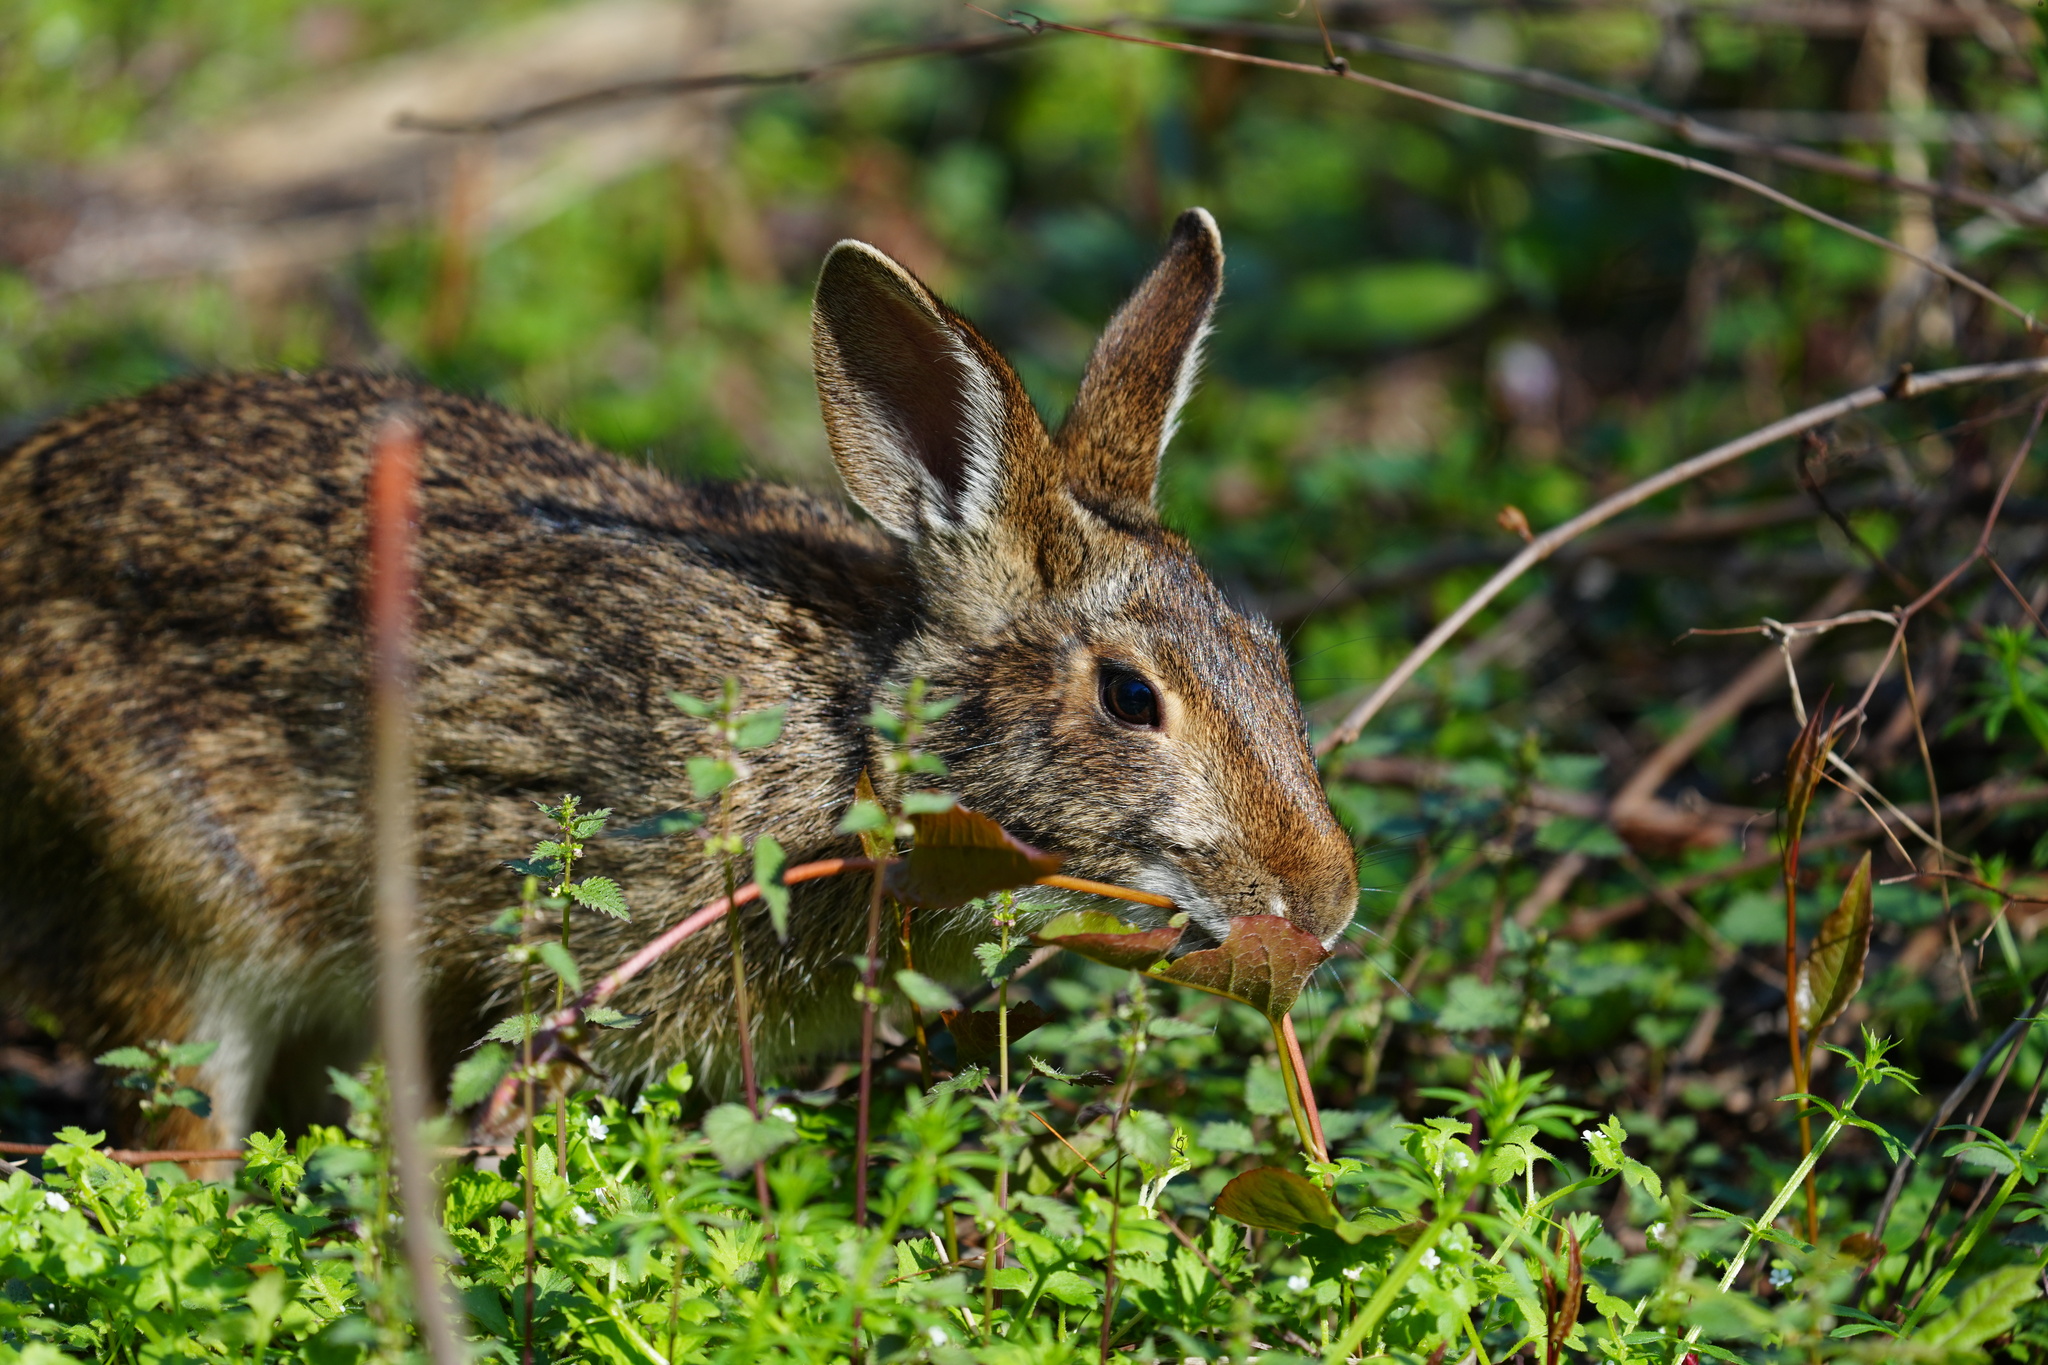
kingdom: Animalia
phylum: Chordata
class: Mammalia
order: Lagomorpha
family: Leporidae
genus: Sylvilagus
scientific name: Sylvilagus aquaticus
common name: Swamp rabbit
